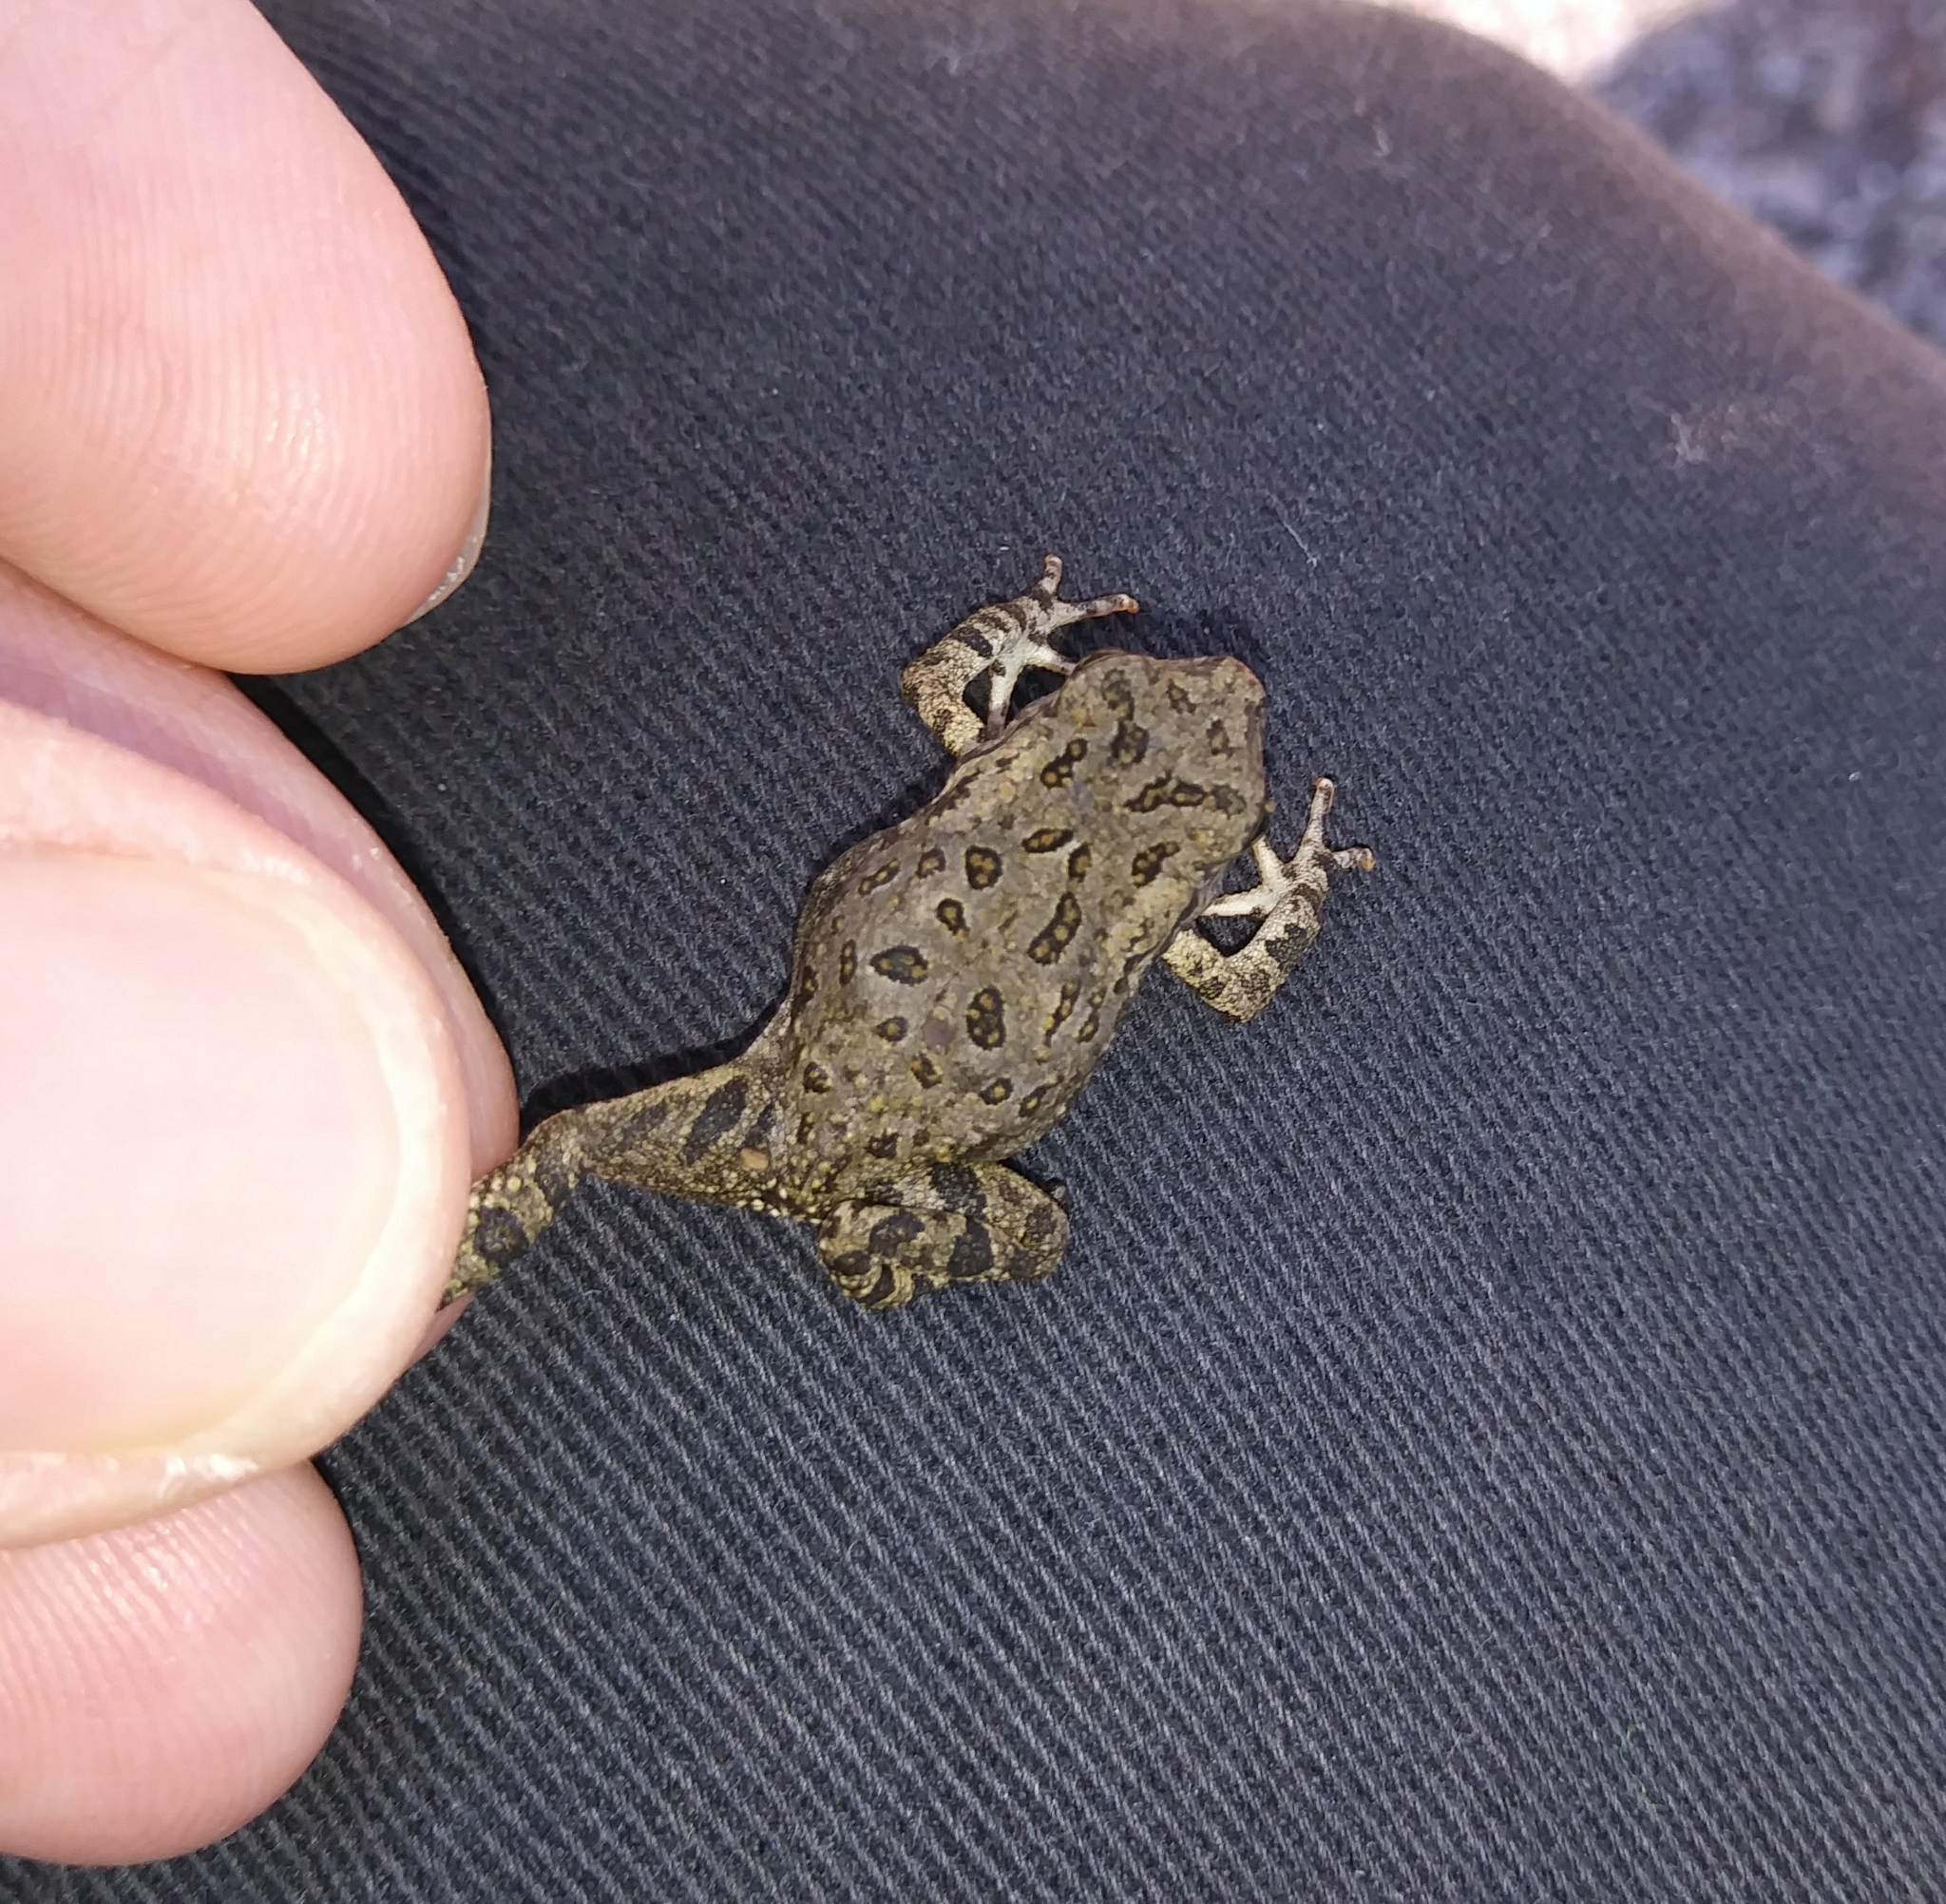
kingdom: Animalia
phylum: Chordata
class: Amphibia
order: Anura
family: Bufonidae
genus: Anaxyrus
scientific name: Anaxyrus fowleri
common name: Fowler's toad
